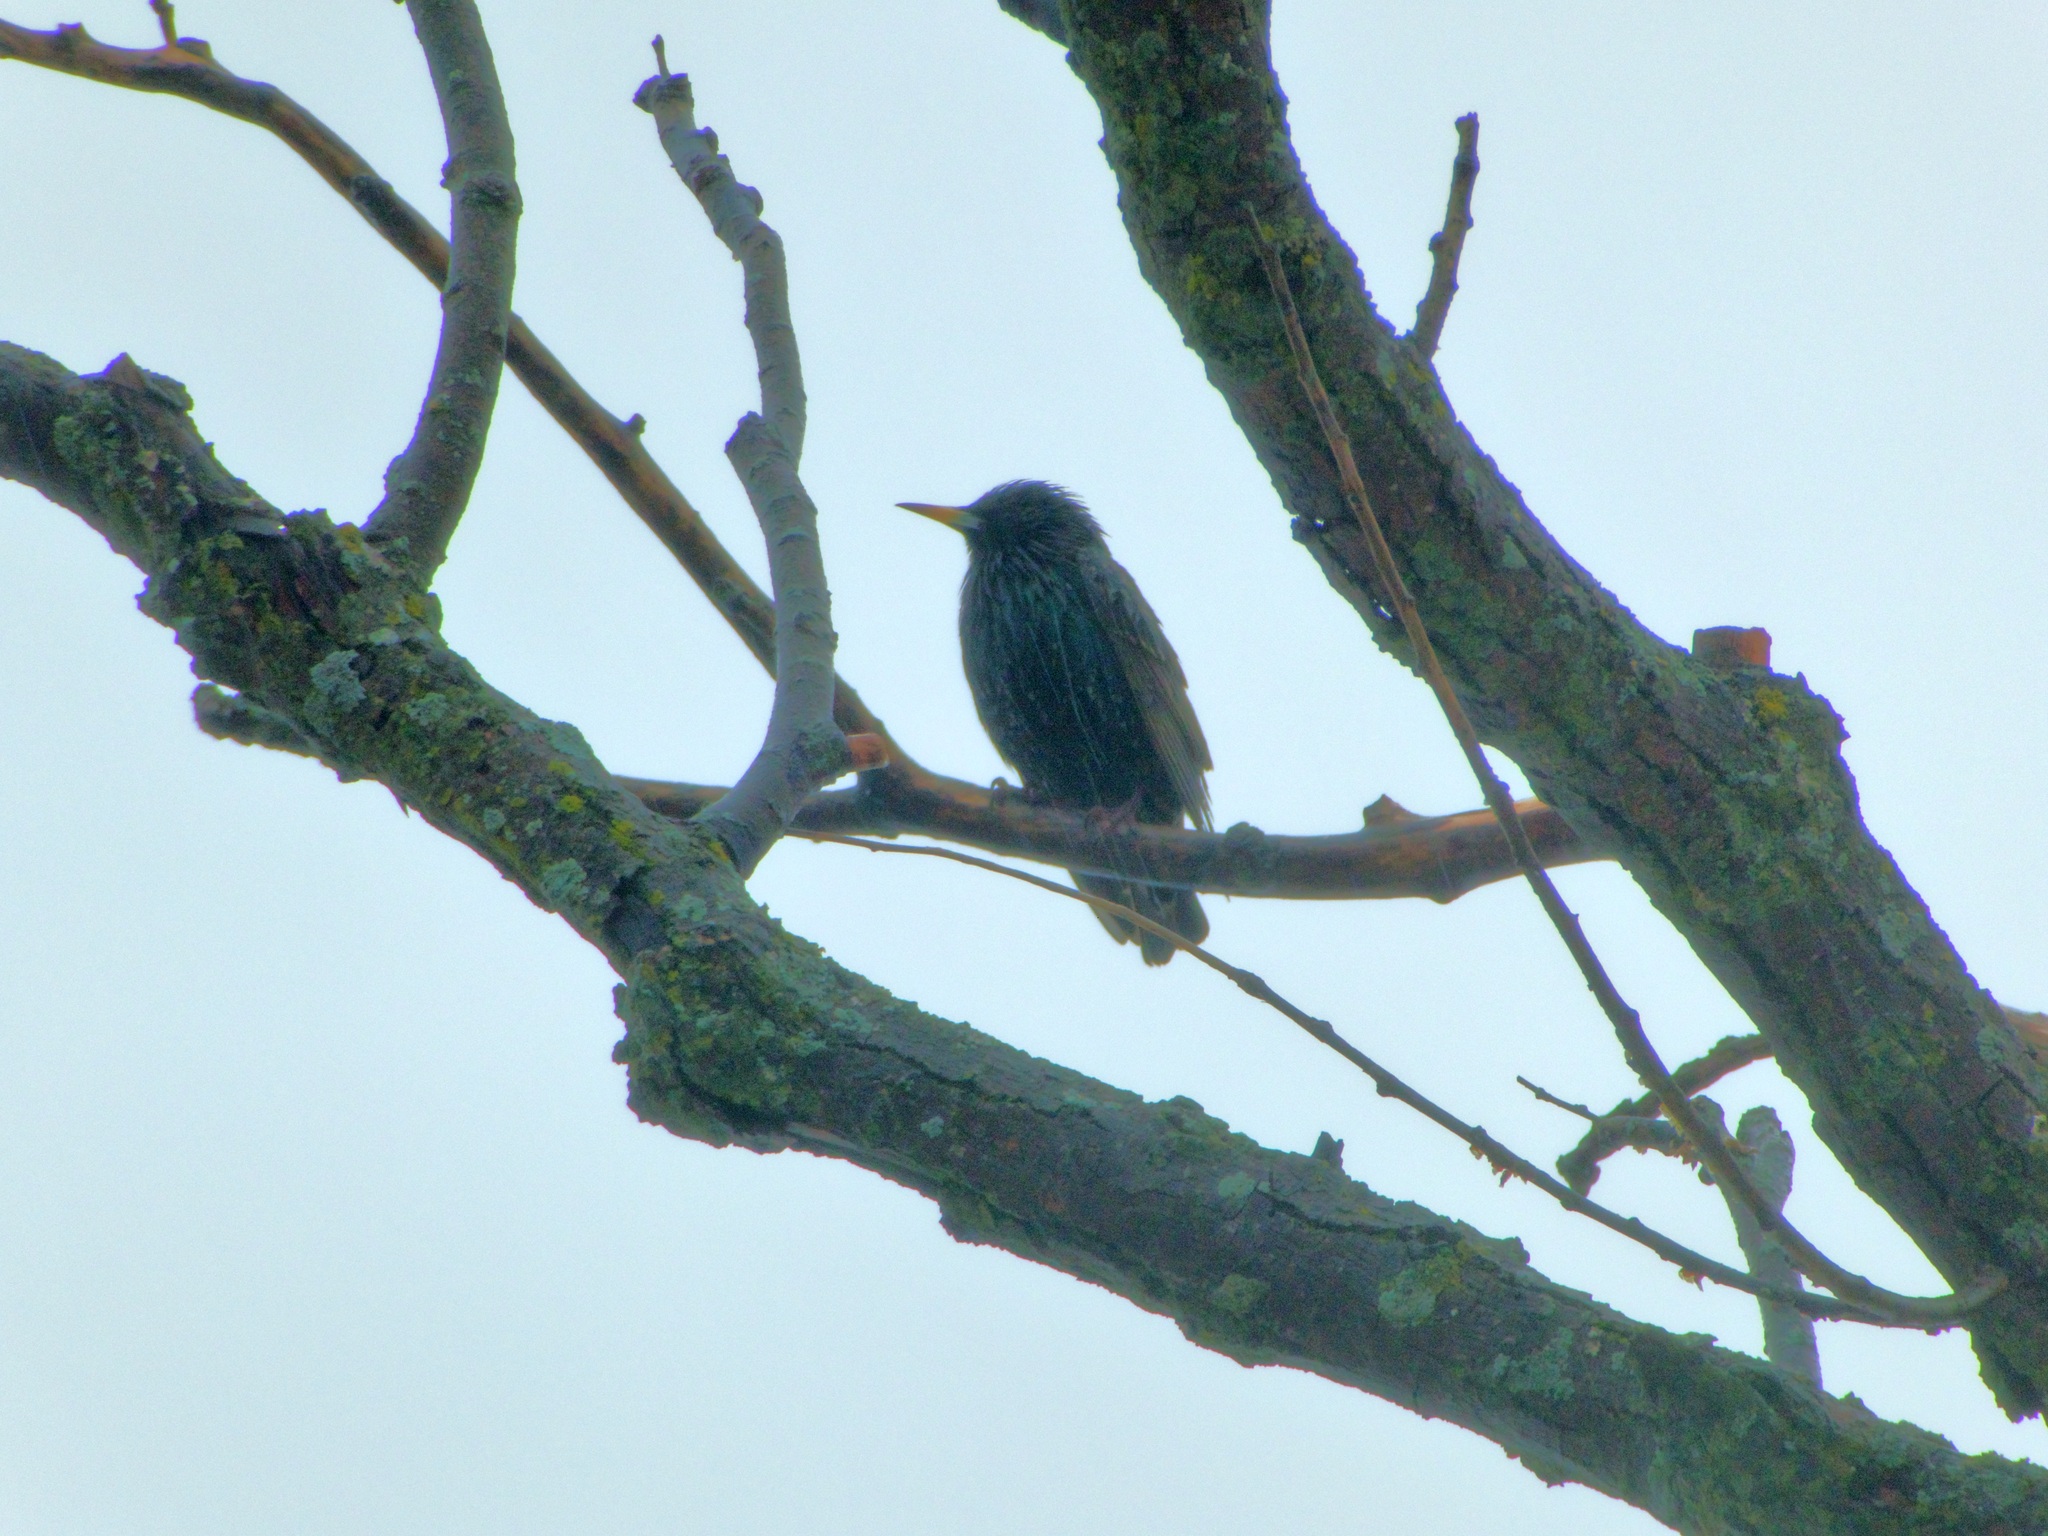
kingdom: Animalia
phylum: Chordata
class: Aves
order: Passeriformes
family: Sturnidae
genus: Sturnus
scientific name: Sturnus vulgaris
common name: Common starling
